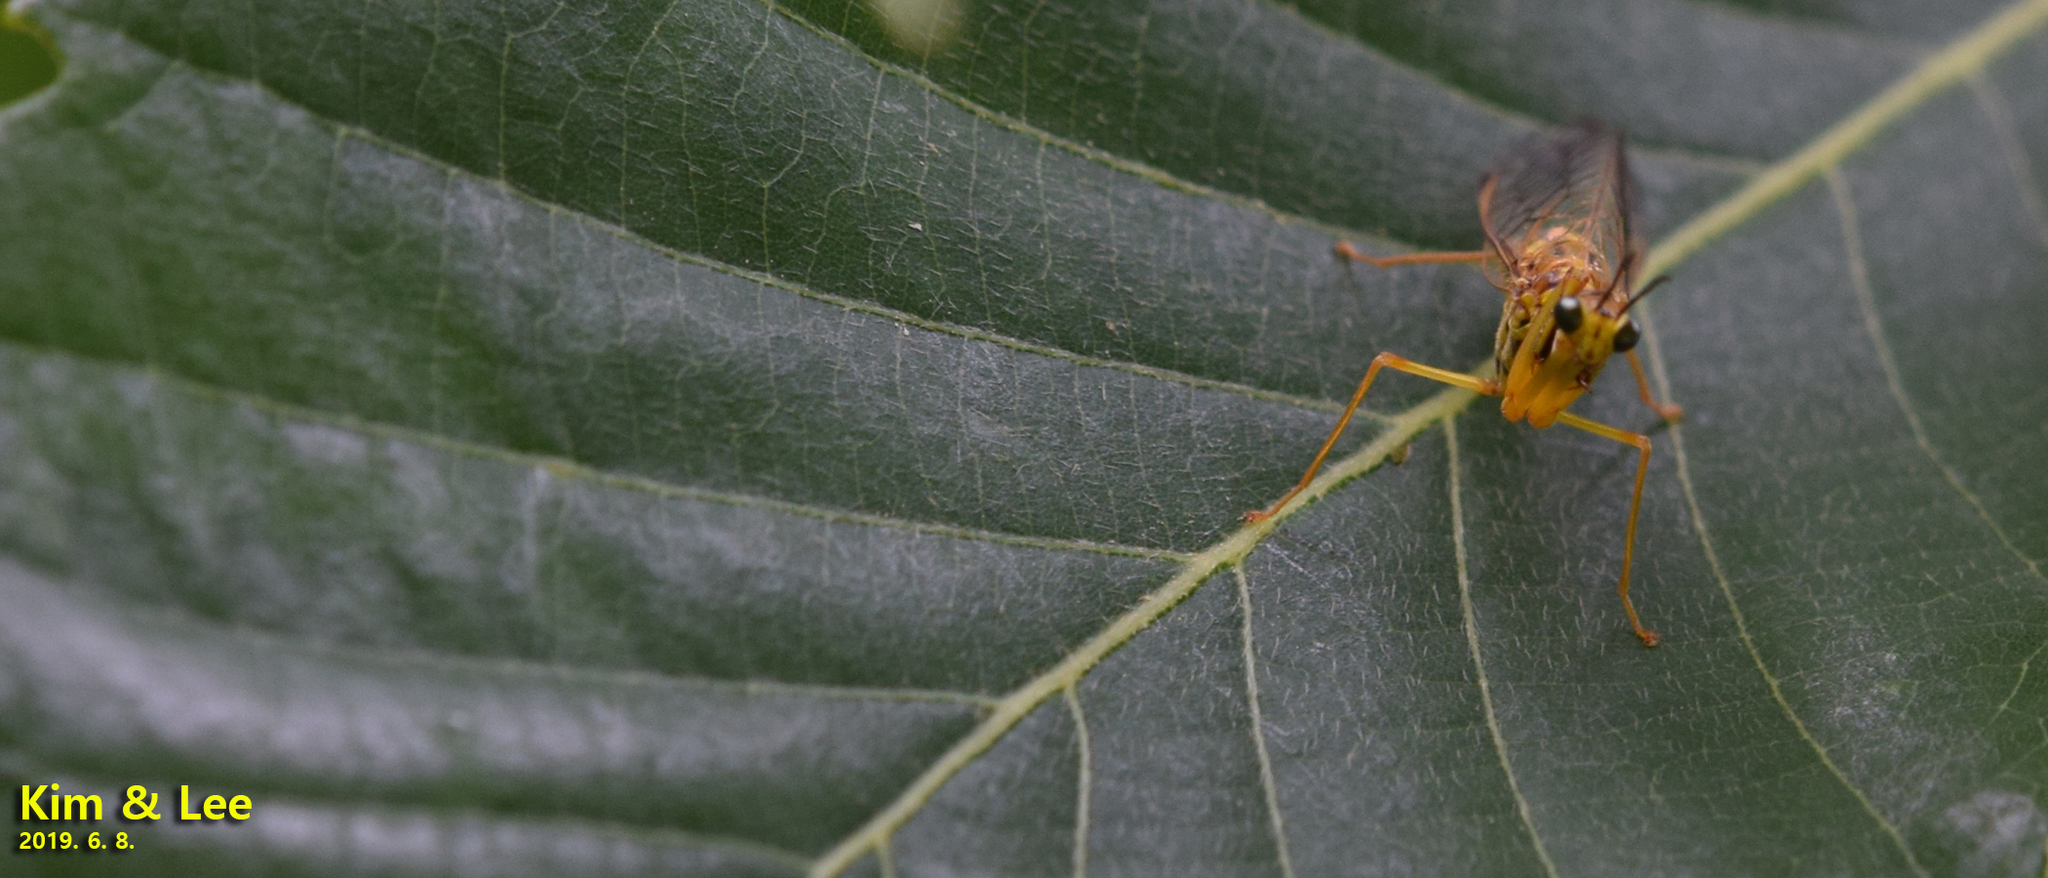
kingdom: Animalia
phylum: Arthropoda
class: Insecta
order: Neuroptera
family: Mantispidae
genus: Mantispa
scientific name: Mantispa japonica
